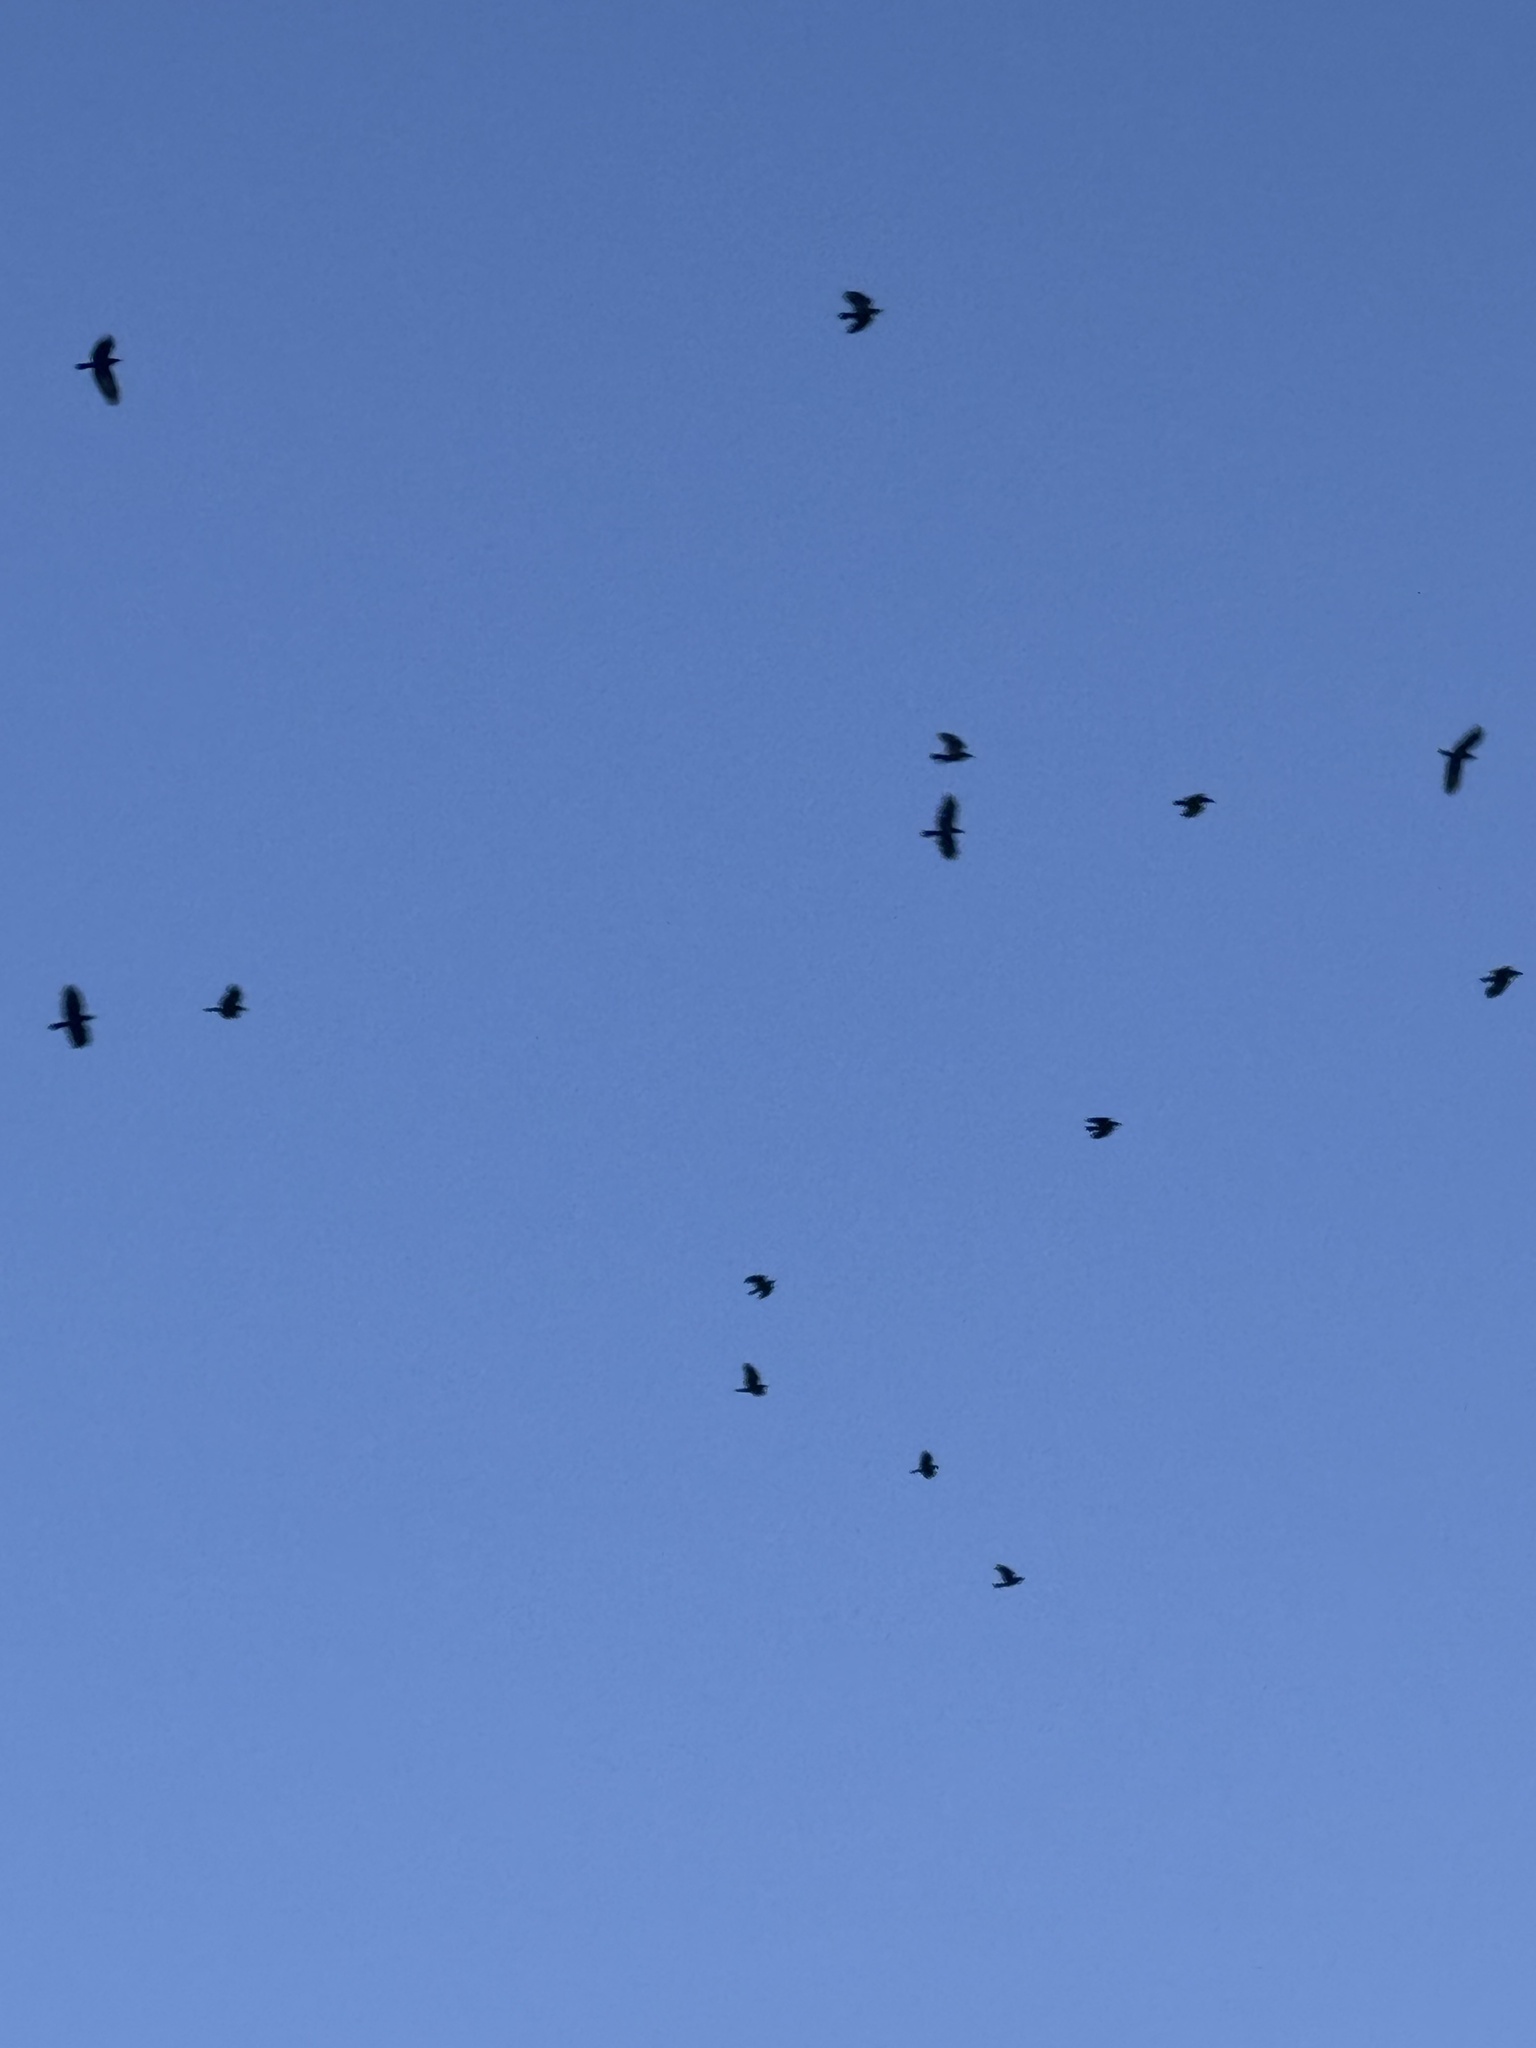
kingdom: Animalia
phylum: Chordata
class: Aves
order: Passeriformes
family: Corvidae
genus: Corvus
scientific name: Corvus brachyrhynchos
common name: American crow
